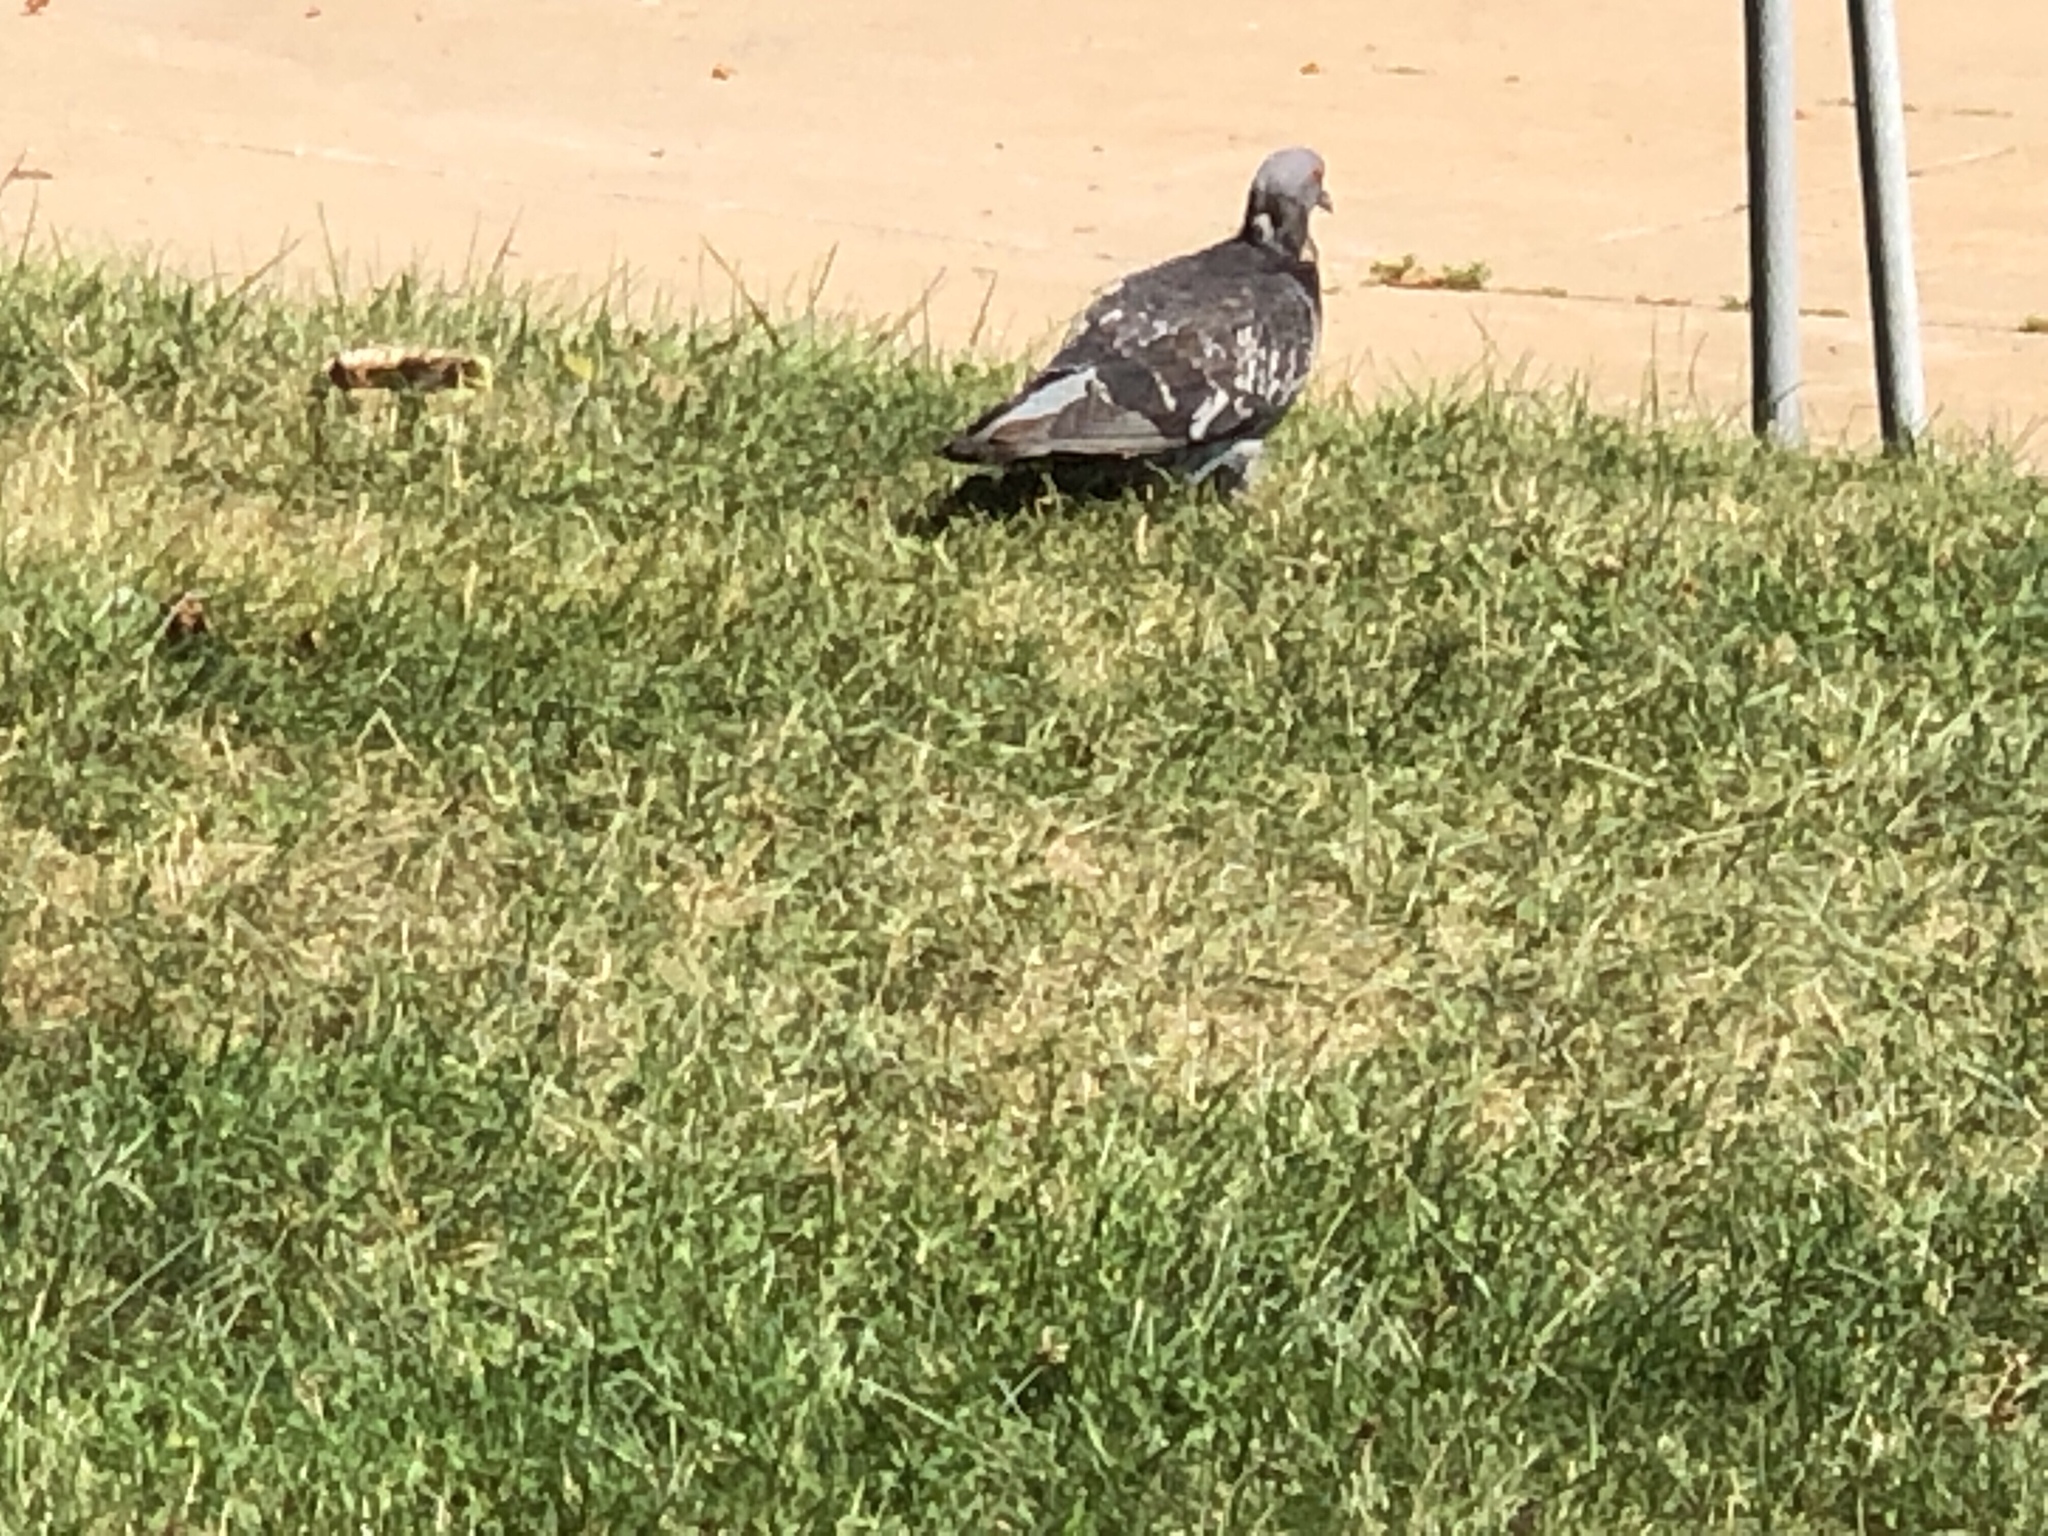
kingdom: Animalia
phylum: Chordata
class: Aves
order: Columbiformes
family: Columbidae
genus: Columba
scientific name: Columba livia
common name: Rock pigeon
